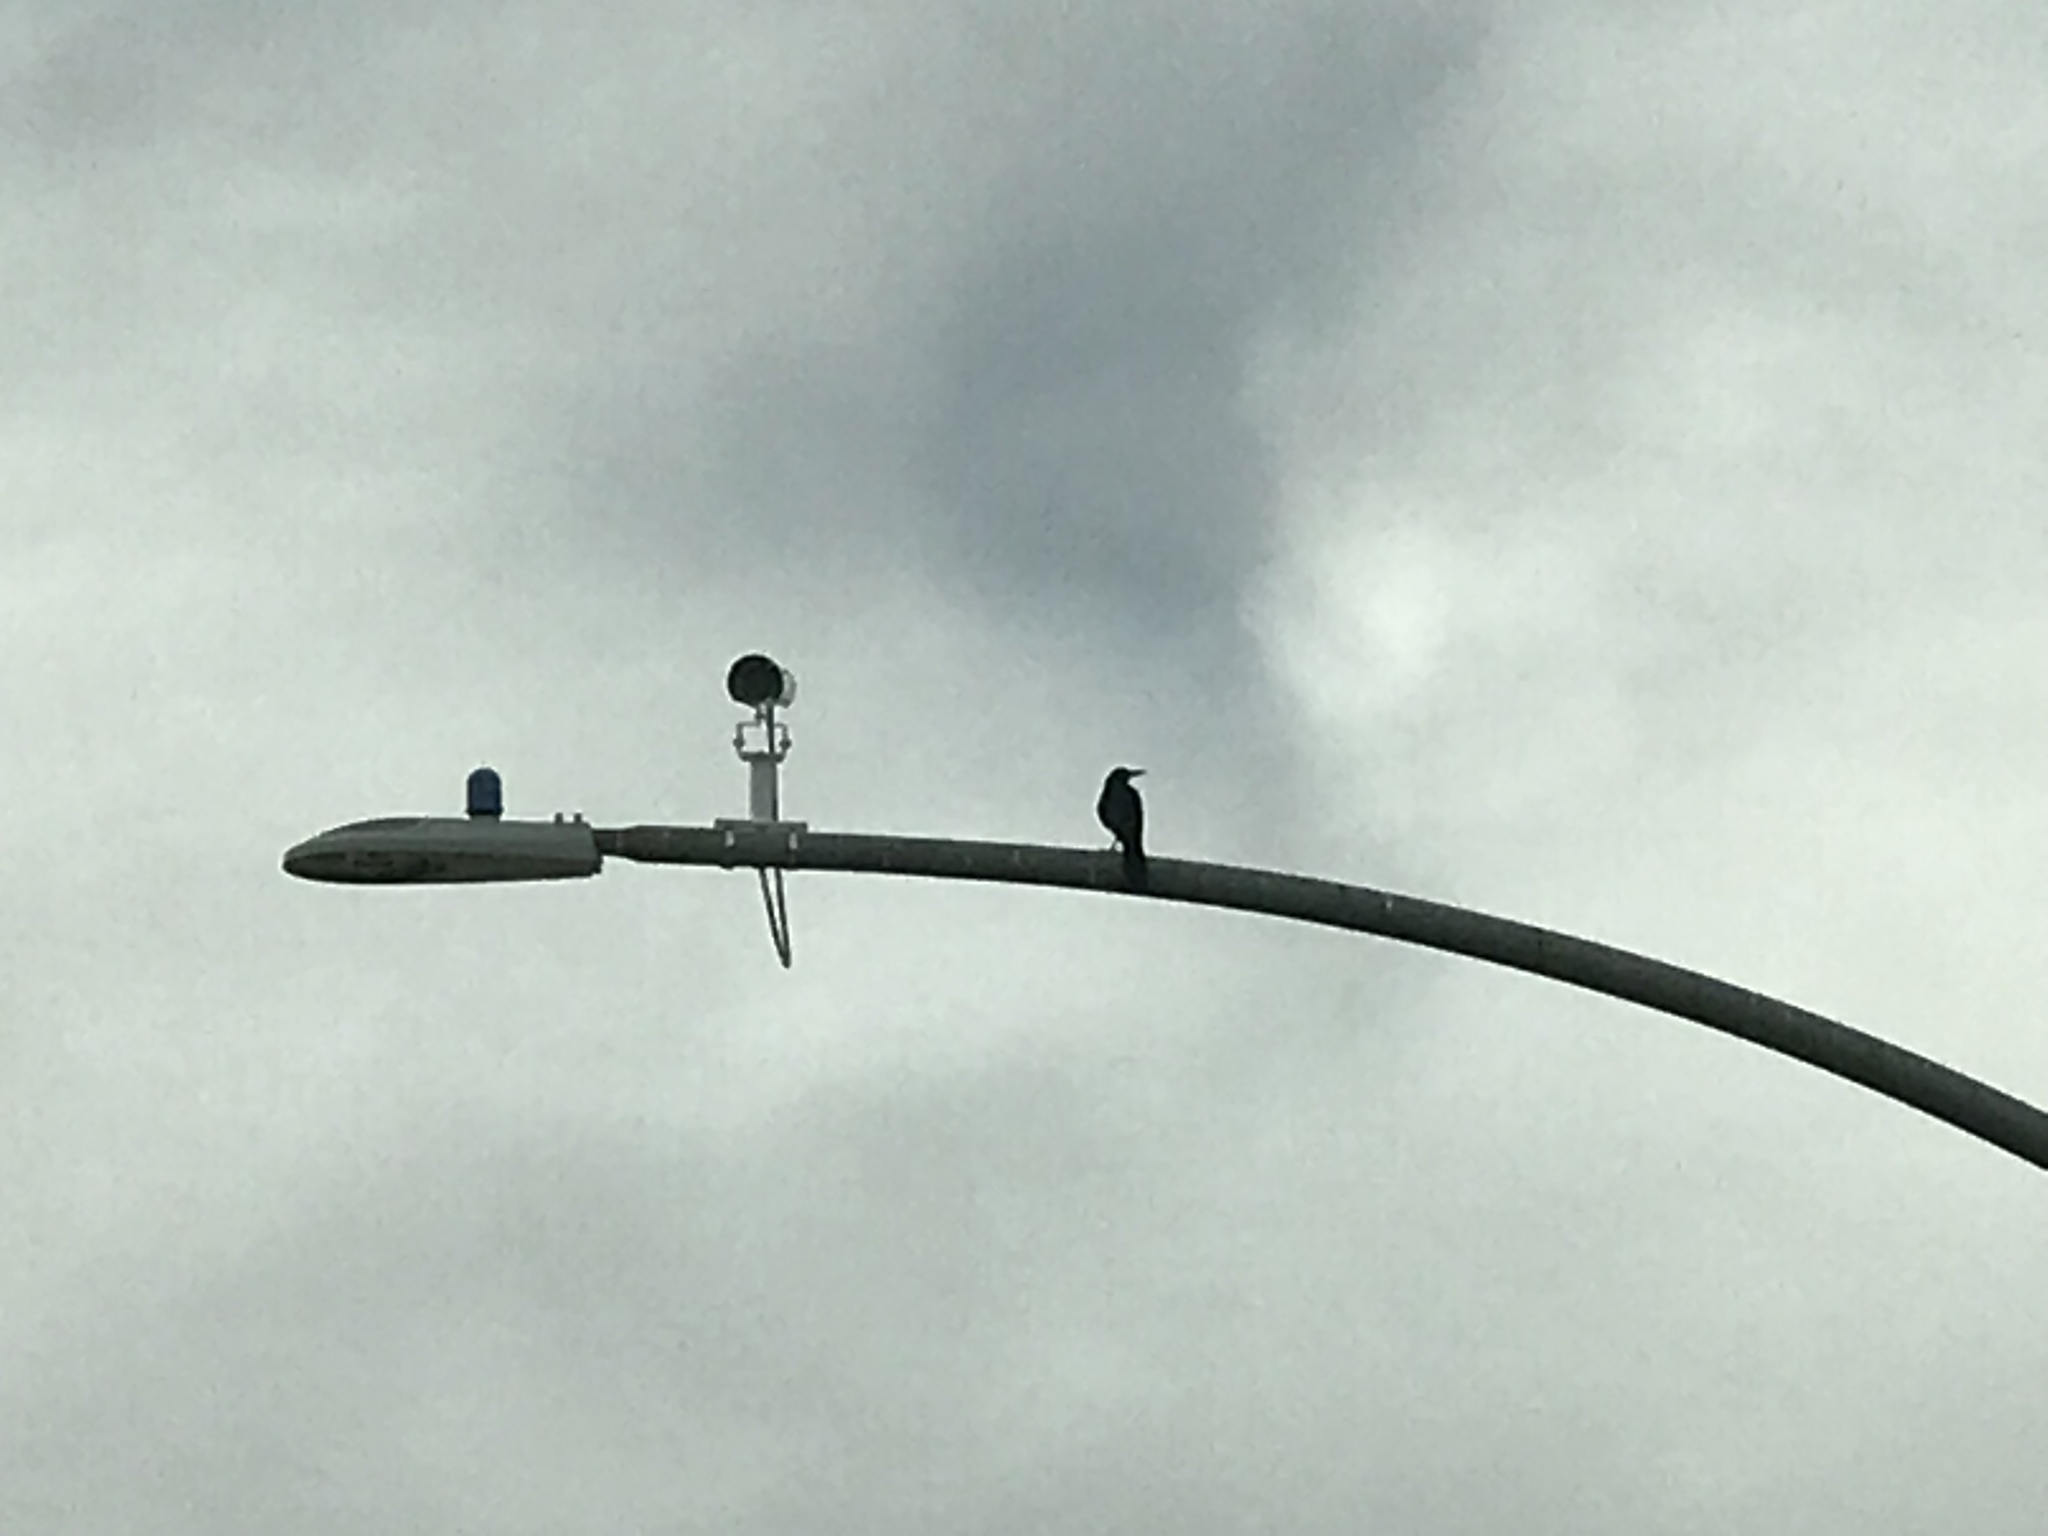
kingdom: Animalia
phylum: Chordata
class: Aves
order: Passeriformes
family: Icteridae
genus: Quiscalus
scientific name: Quiscalus mexicanus
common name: Great-tailed grackle
